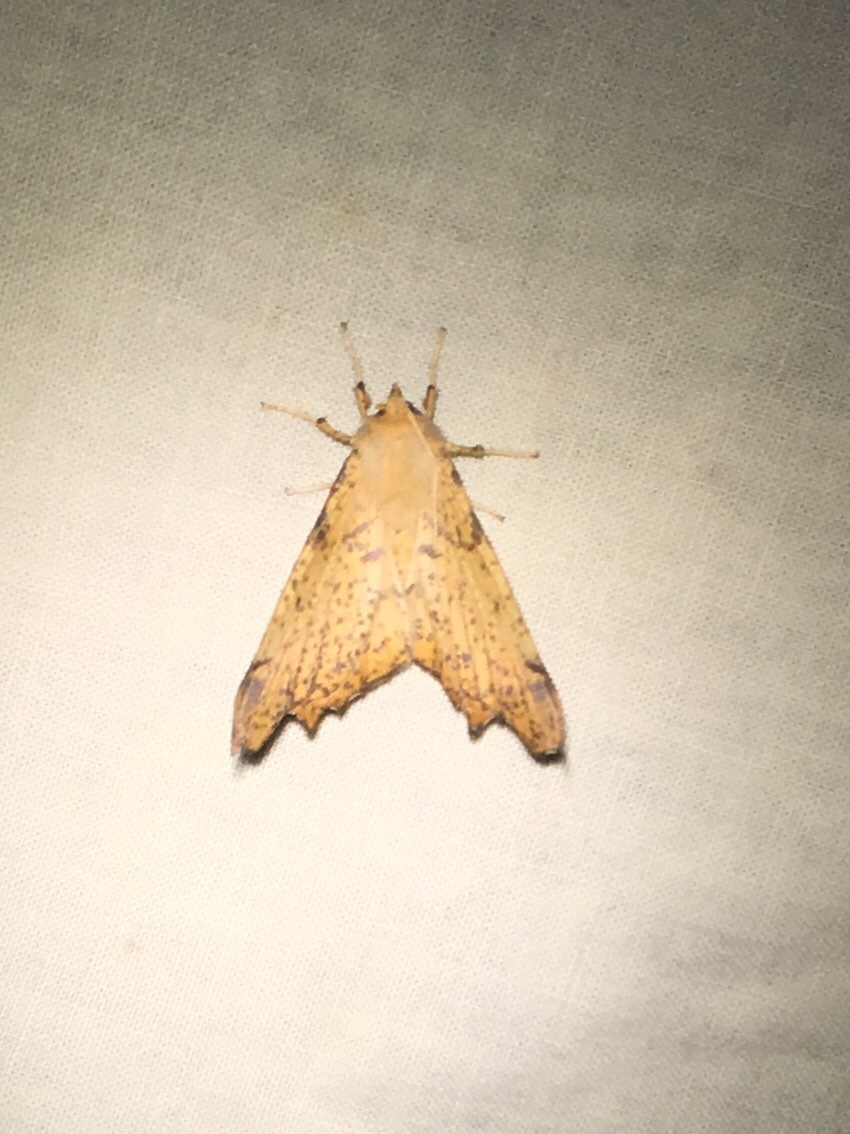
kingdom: Animalia
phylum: Arthropoda
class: Insecta
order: Lepidoptera
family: Geometridae
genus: Ennomos
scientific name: Ennomos magnaria
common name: Maple spanworm
